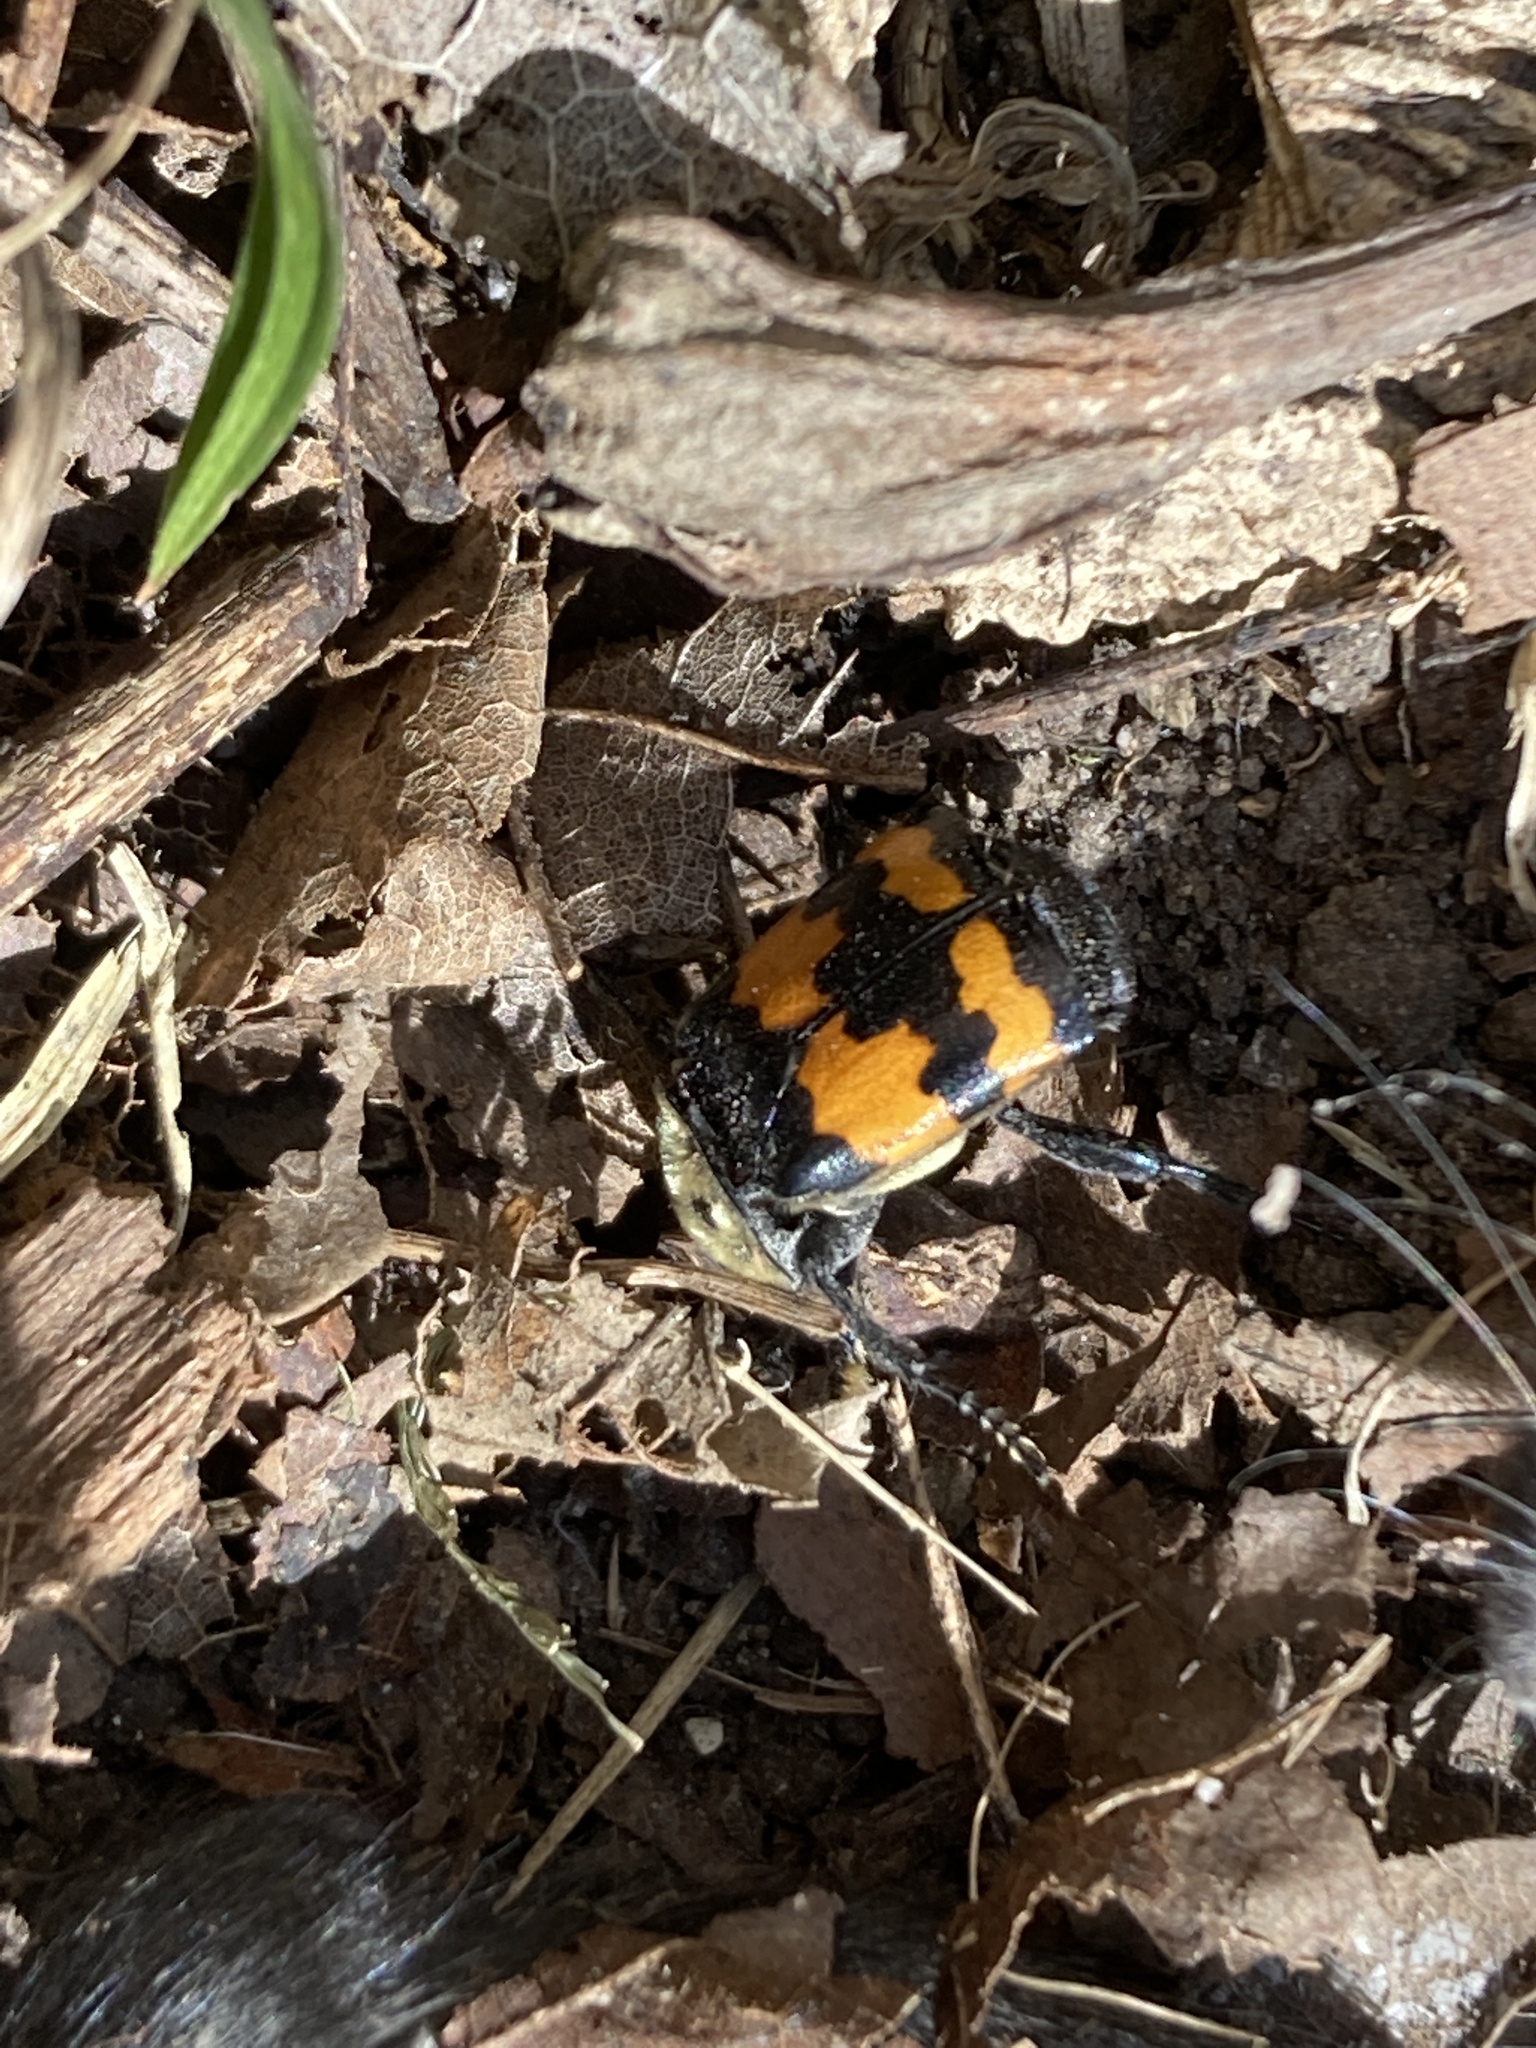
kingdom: Animalia
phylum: Arthropoda
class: Insecta
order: Coleoptera
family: Staphylinidae
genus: Nicrophorus
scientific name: Nicrophorus tomentosus
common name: Tomentose burying beetle
